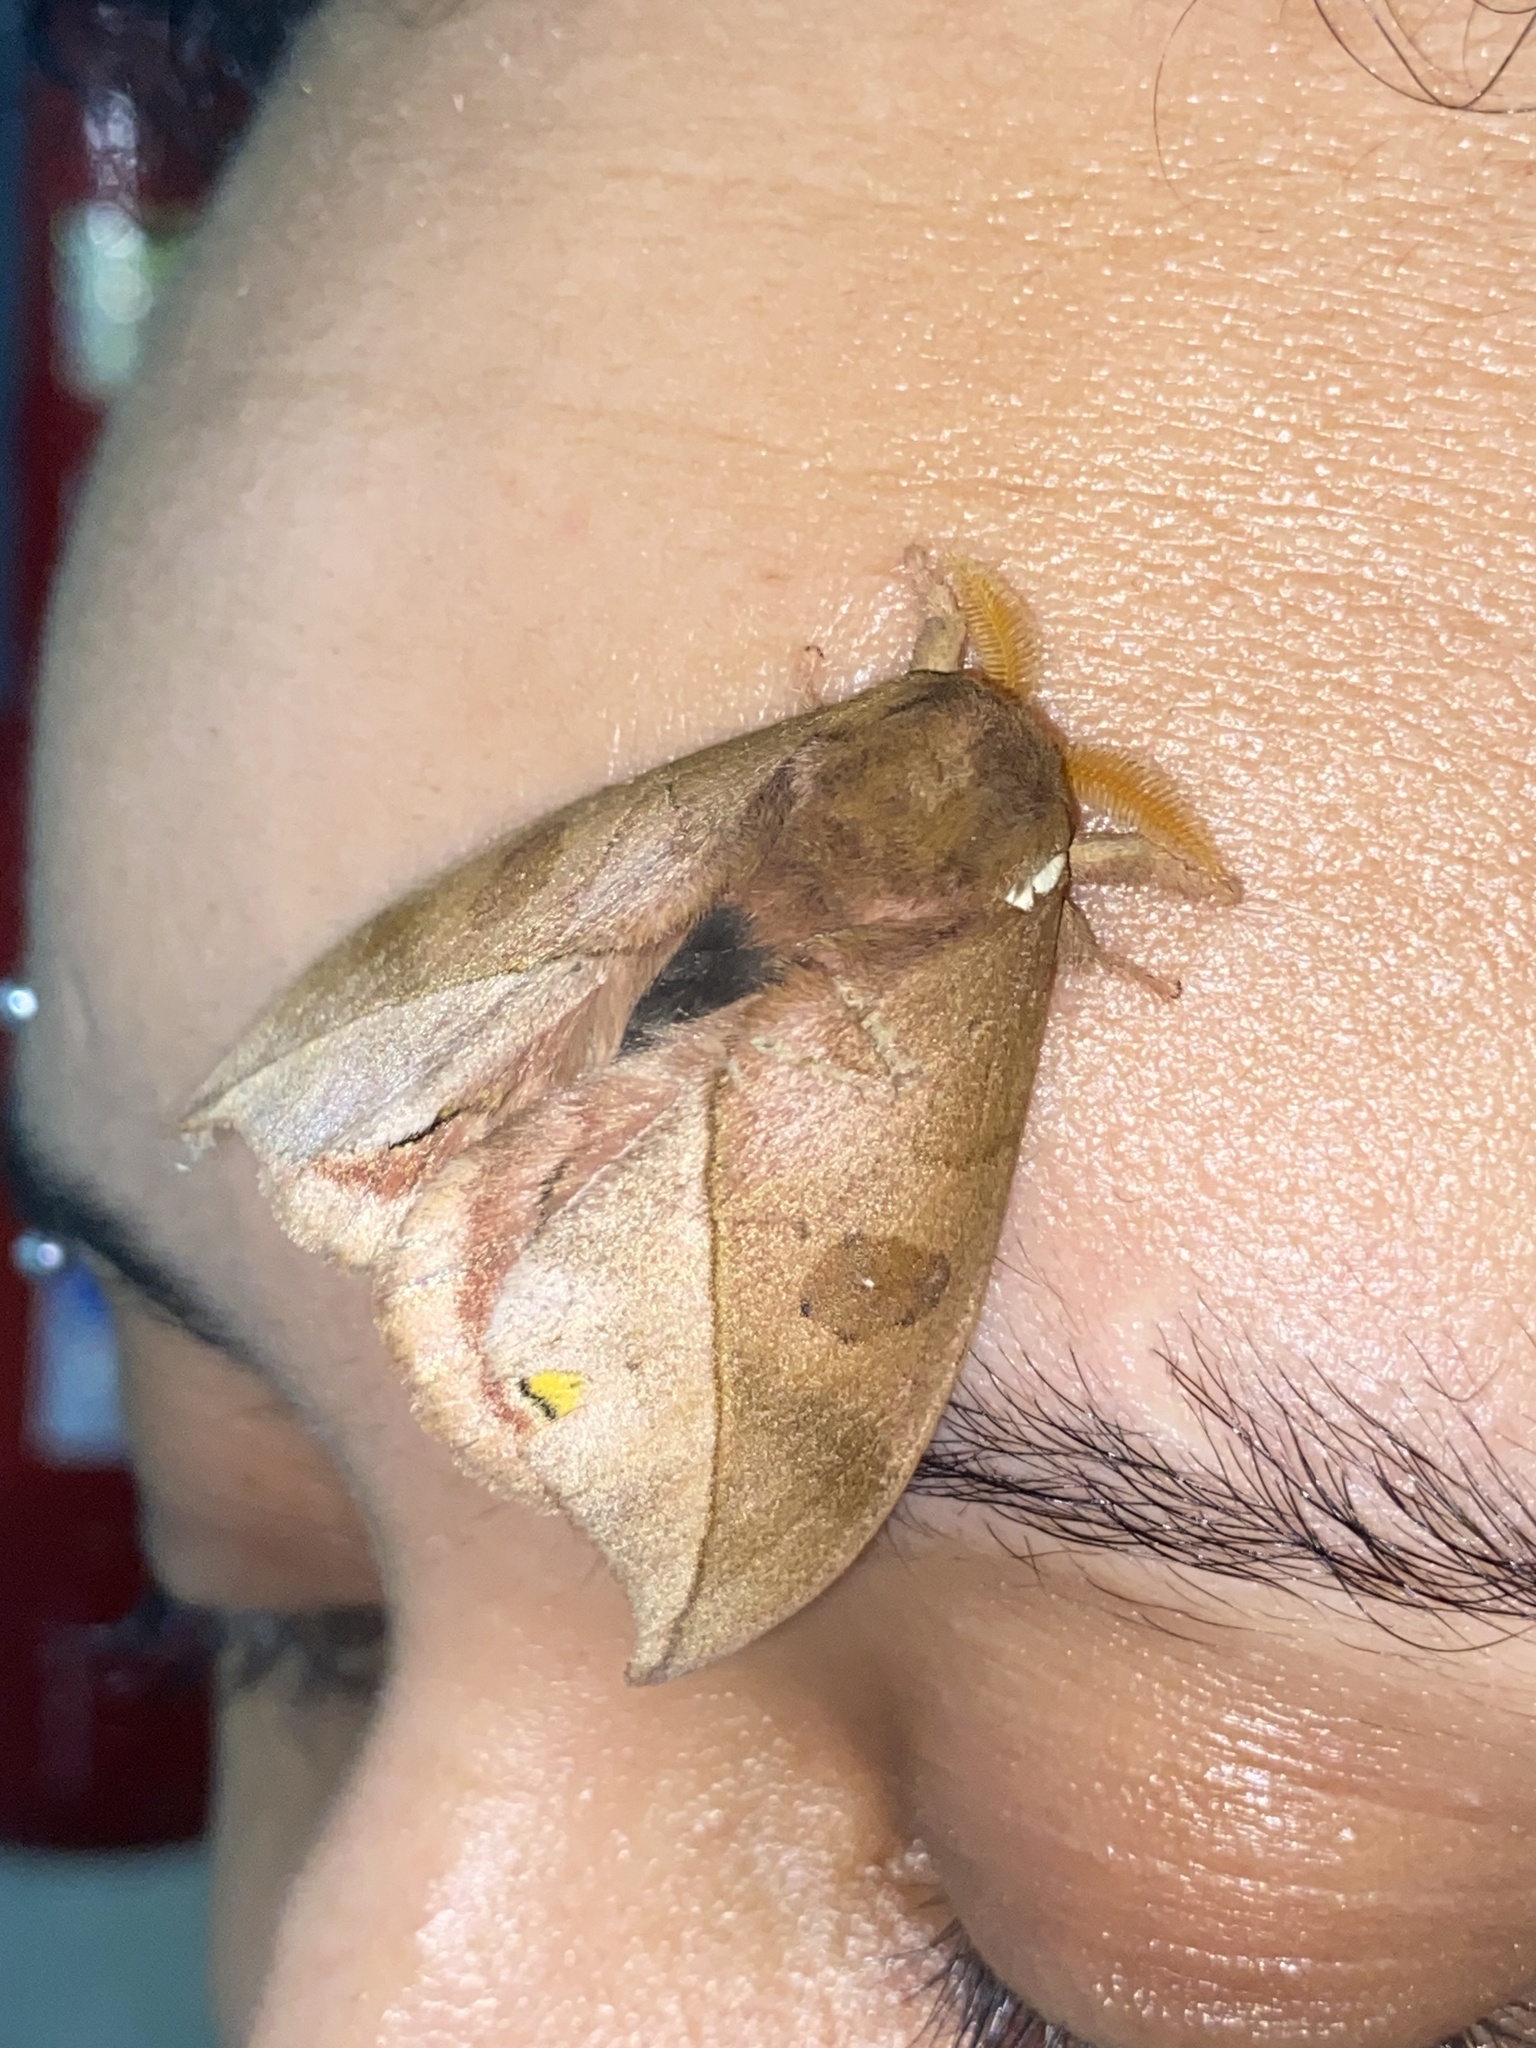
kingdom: Animalia
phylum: Arthropoda
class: Insecta
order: Lepidoptera
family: Saturniidae
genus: Automeris
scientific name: Automeris melanops
